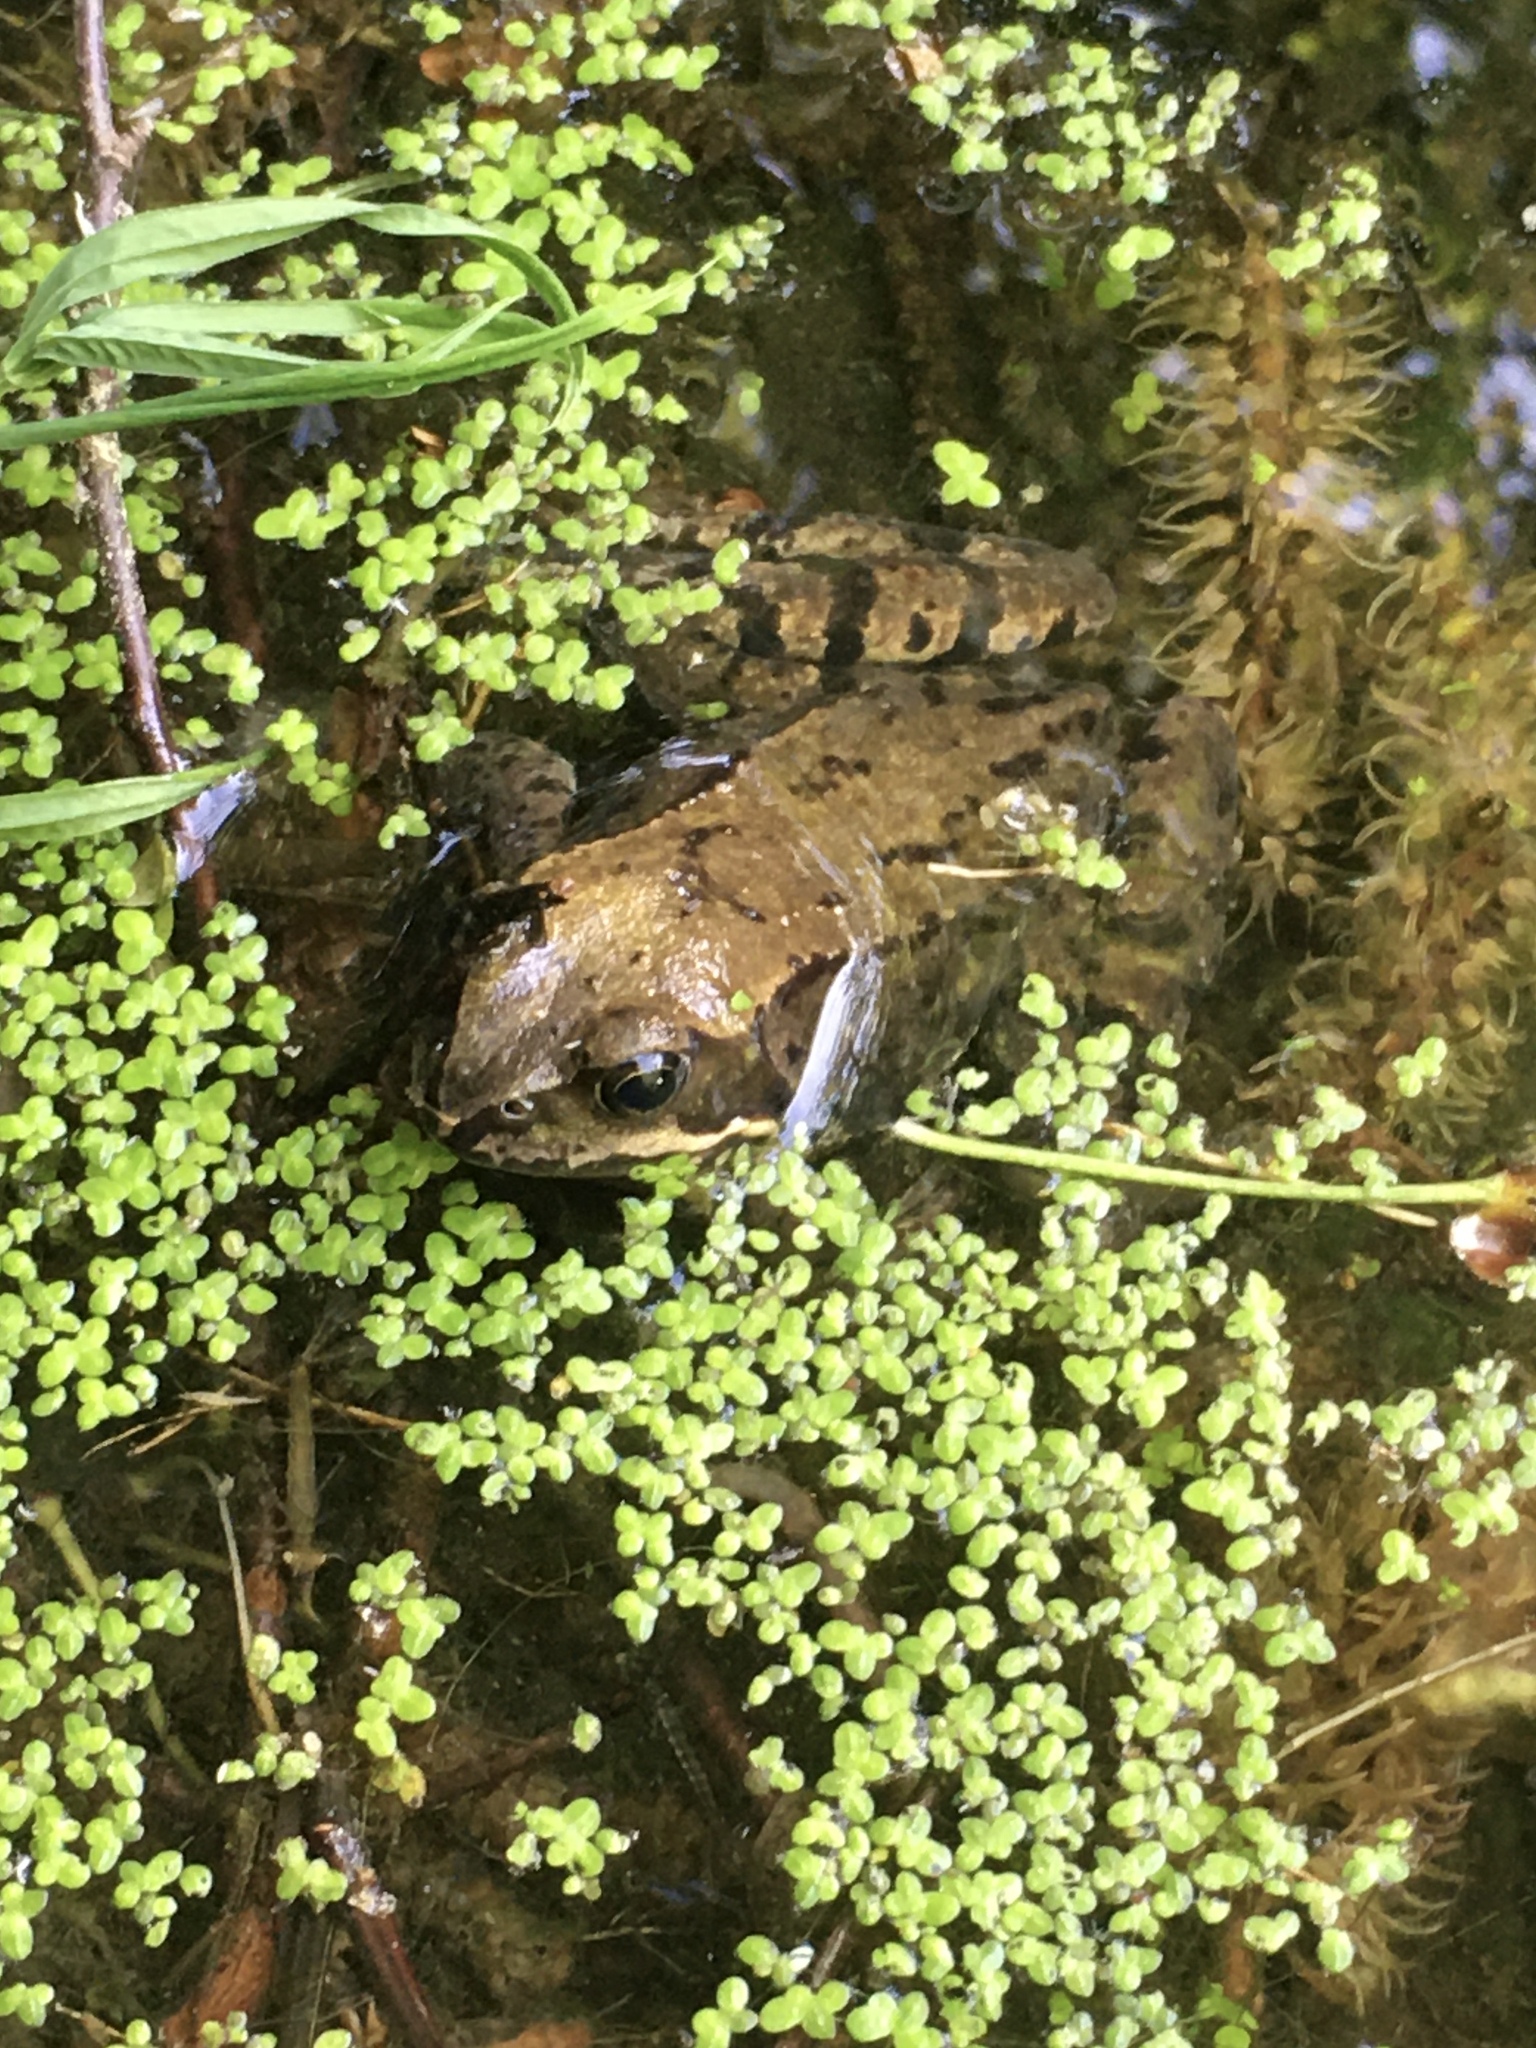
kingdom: Animalia
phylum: Chordata
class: Amphibia
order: Anura
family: Ranidae
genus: Rana
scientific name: Rana temporaria
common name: Common frog
